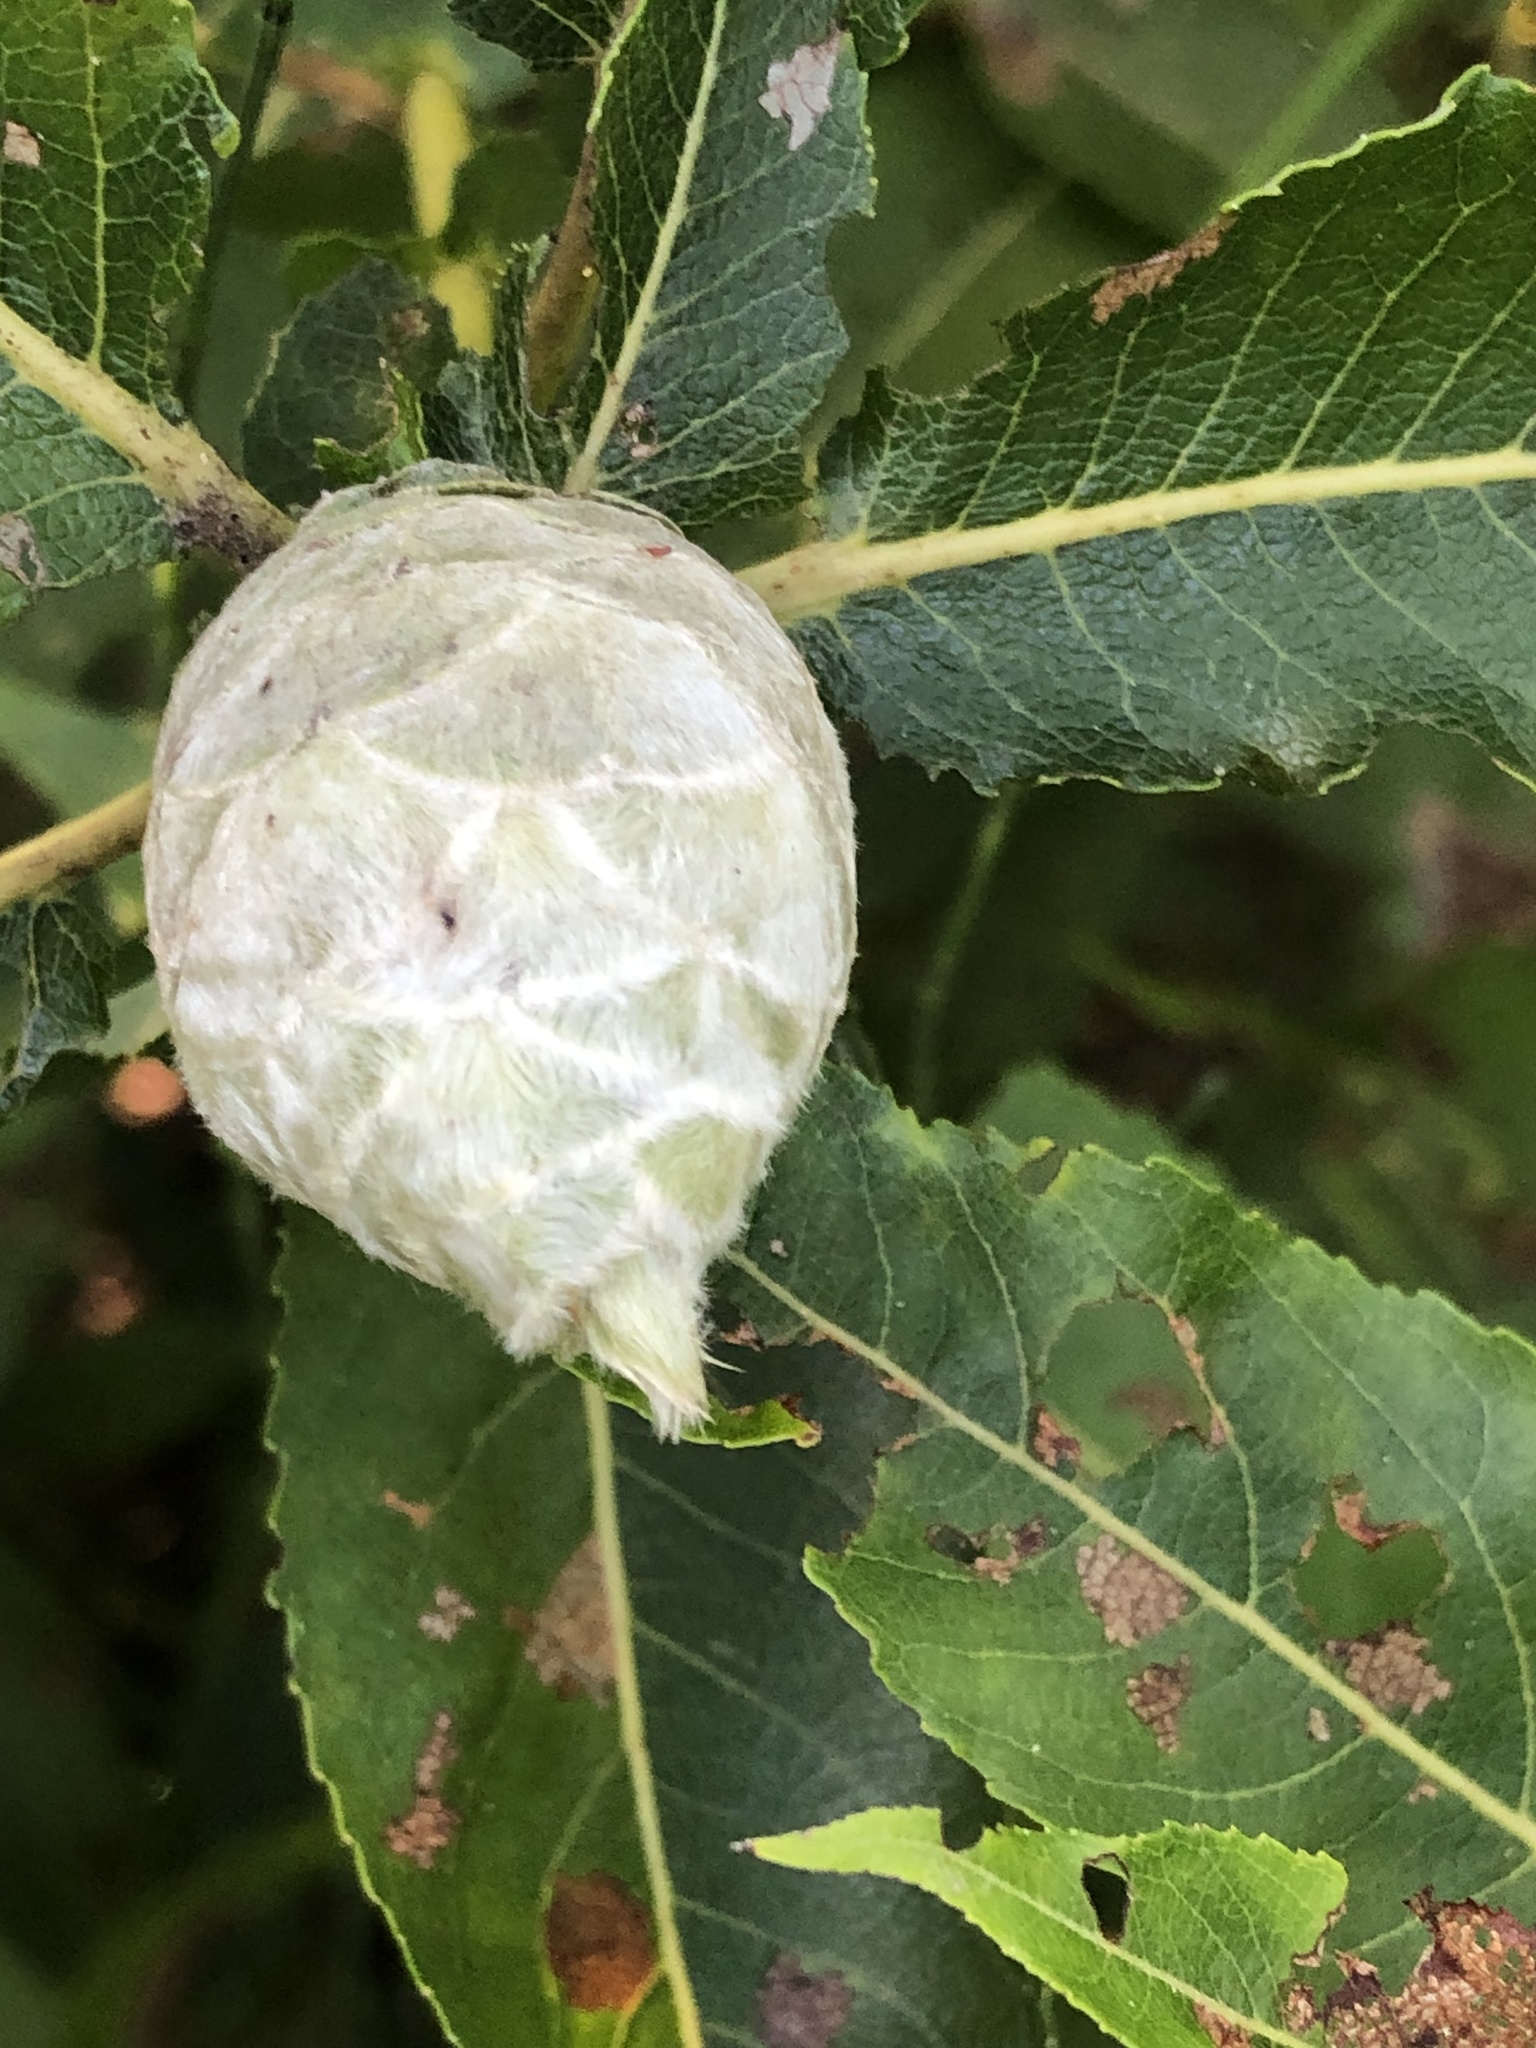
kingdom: Animalia
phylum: Arthropoda
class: Insecta
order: Diptera
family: Cecidomyiidae
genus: Rabdophaga
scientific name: Rabdophaga strobiloides
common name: Willow pinecone gall midge
